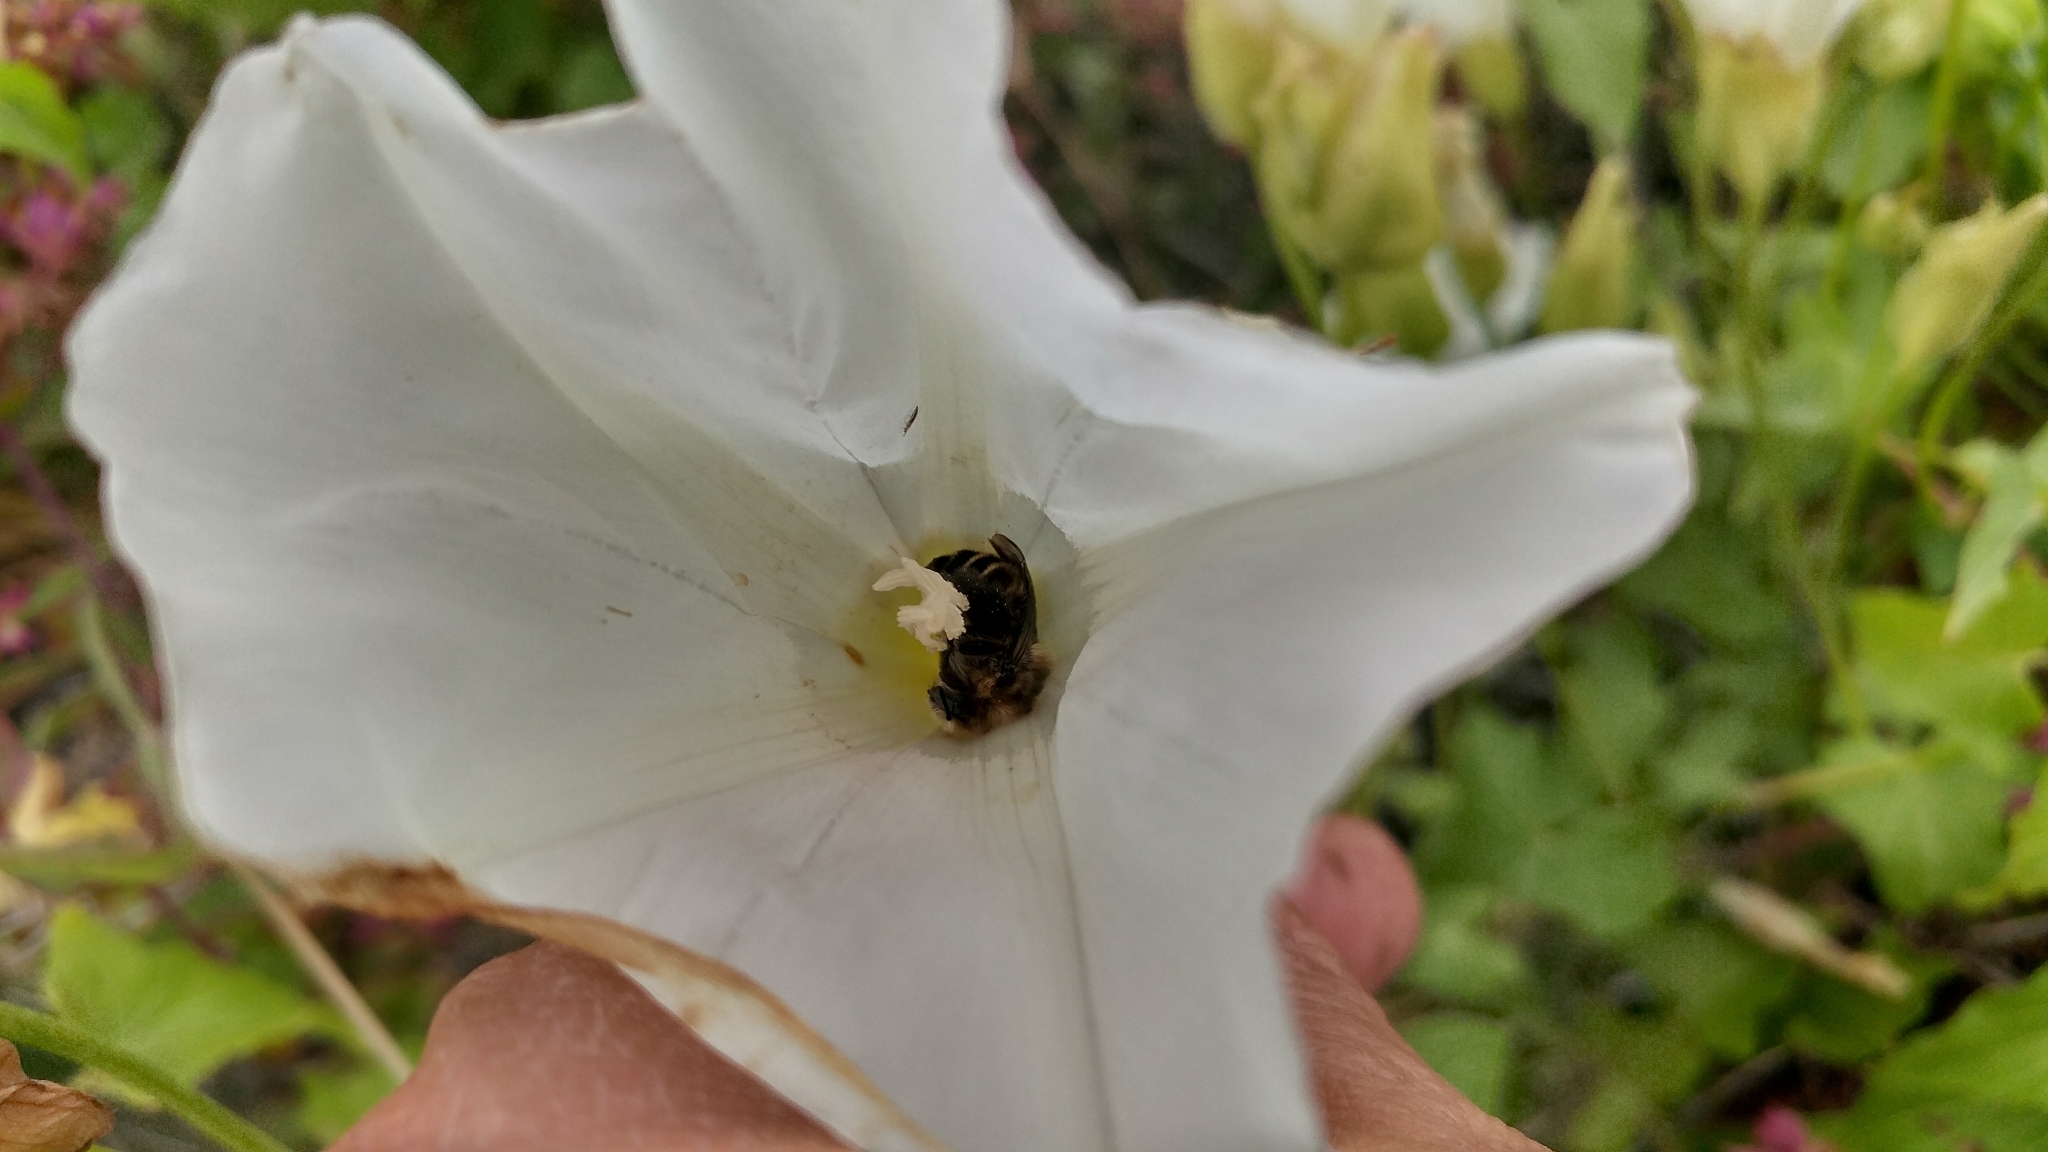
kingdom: Animalia
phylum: Arthropoda
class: Insecta
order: Hymenoptera
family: Apidae
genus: Diadasia
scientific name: Diadasia bituberculata
